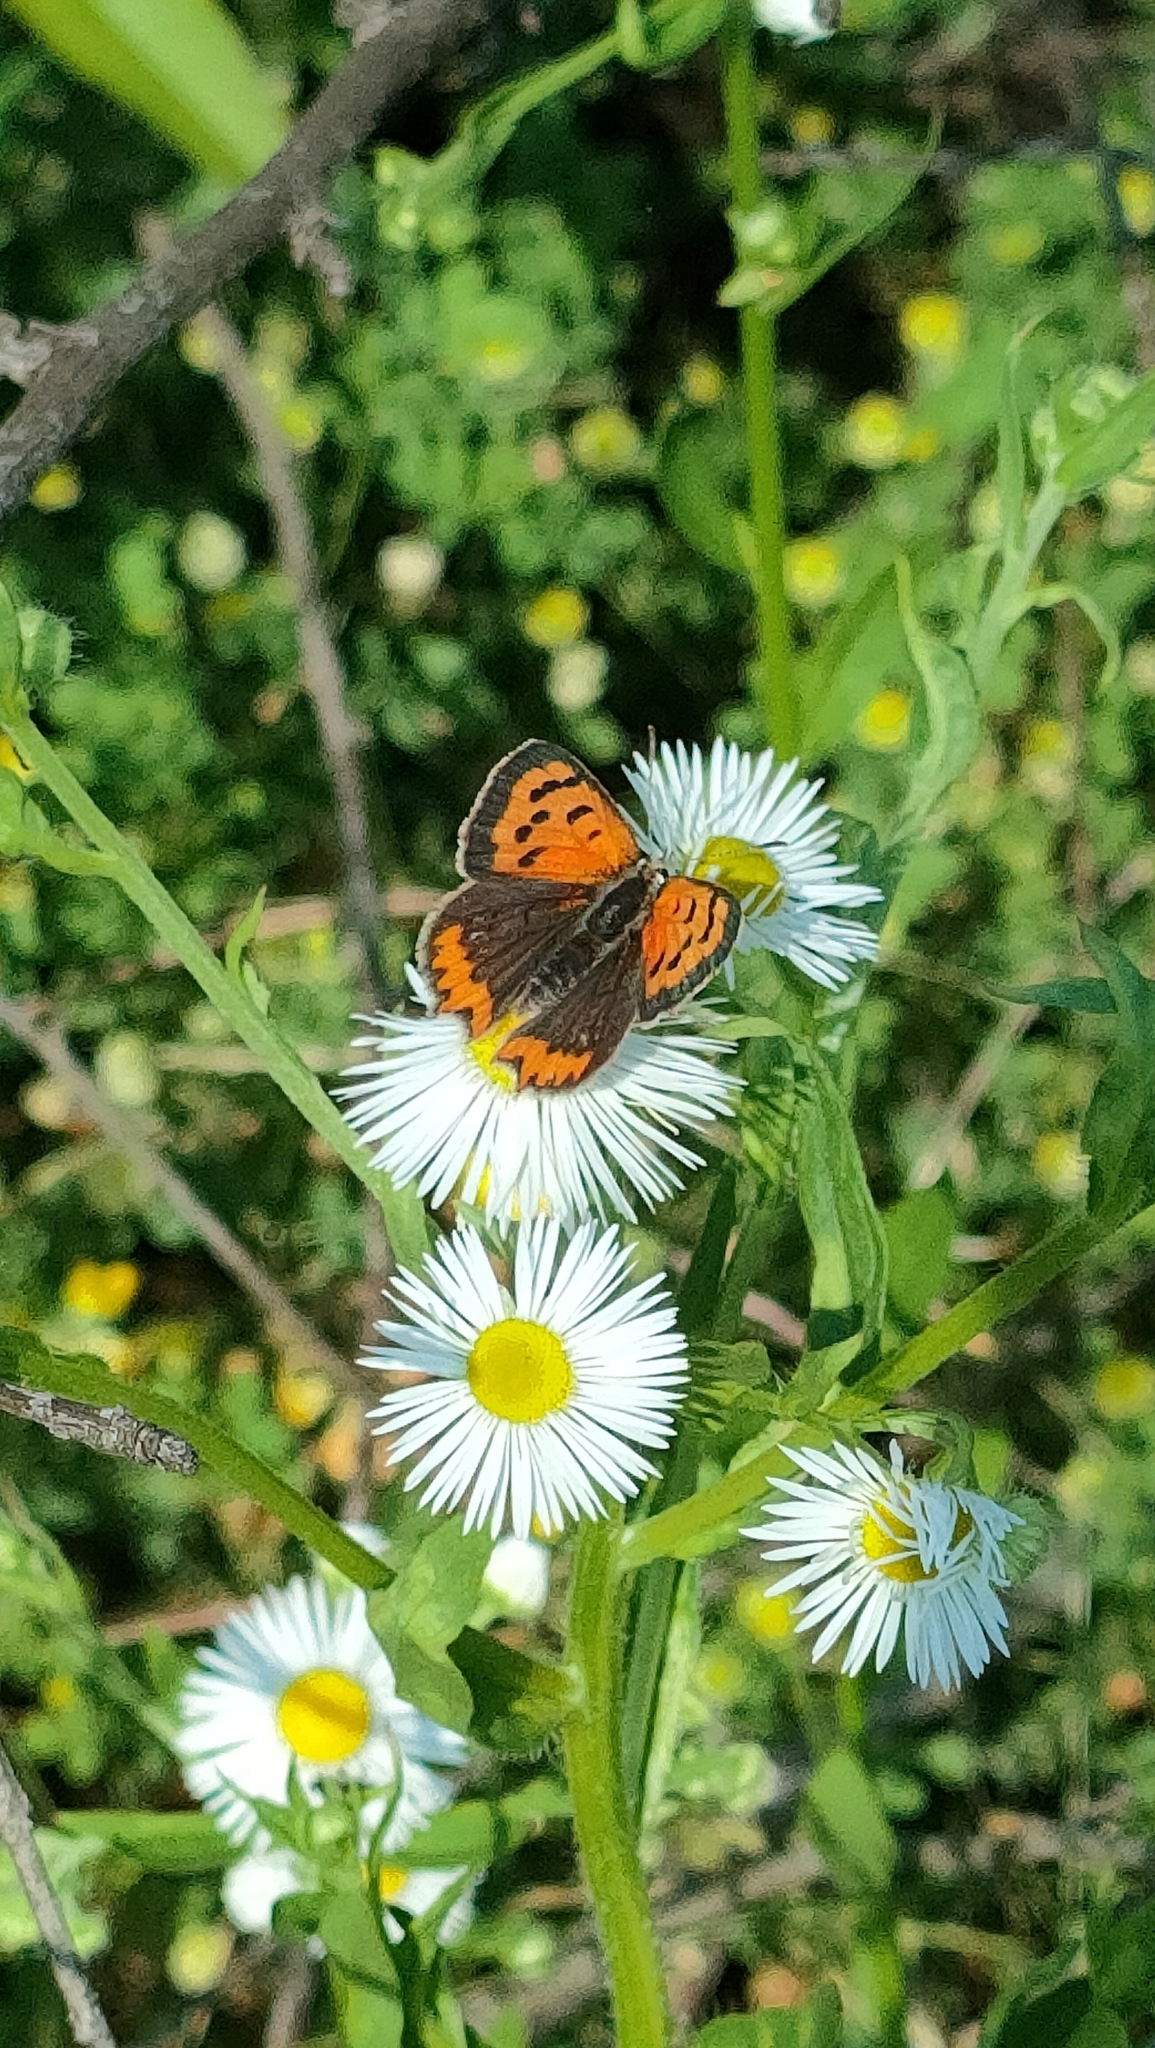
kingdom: Animalia
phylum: Arthropoda
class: Insecta
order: Lepidoptera
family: Lycaenidae
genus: Lycaena
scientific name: Lycaena phlaeas
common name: Small copper
